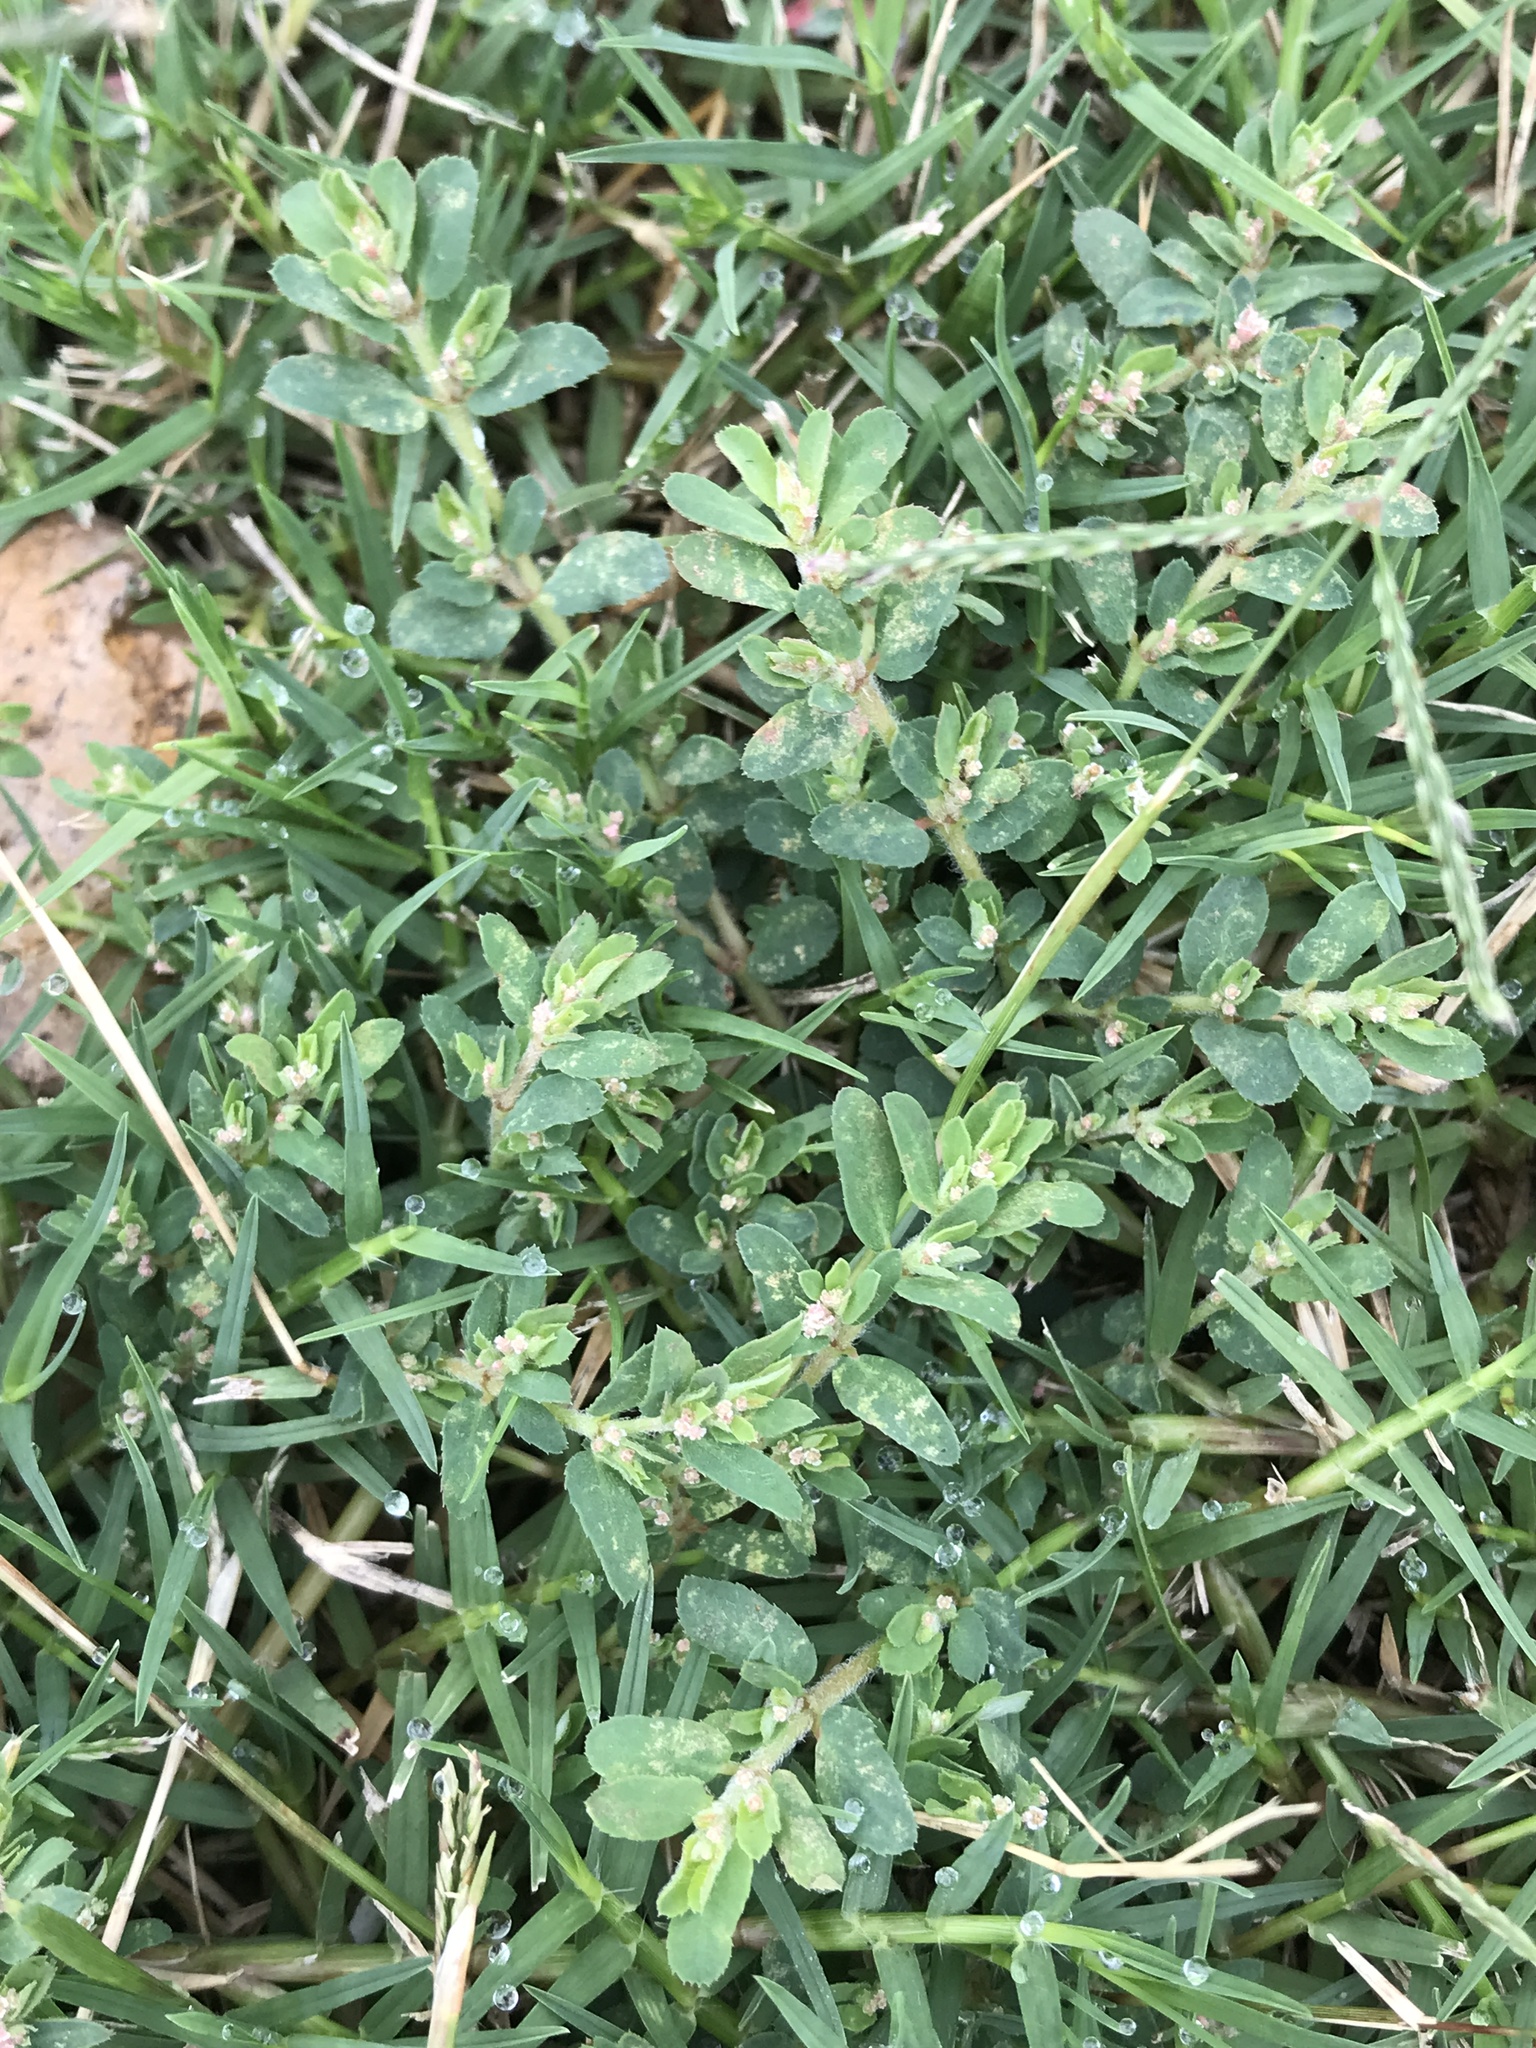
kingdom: Plantae
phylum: Tracheophyta
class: Magnoliopsida
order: Malpighiales
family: Euphorbiaceae
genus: Euphorbia
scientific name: Euphorbia maculata
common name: Spotted spurge
